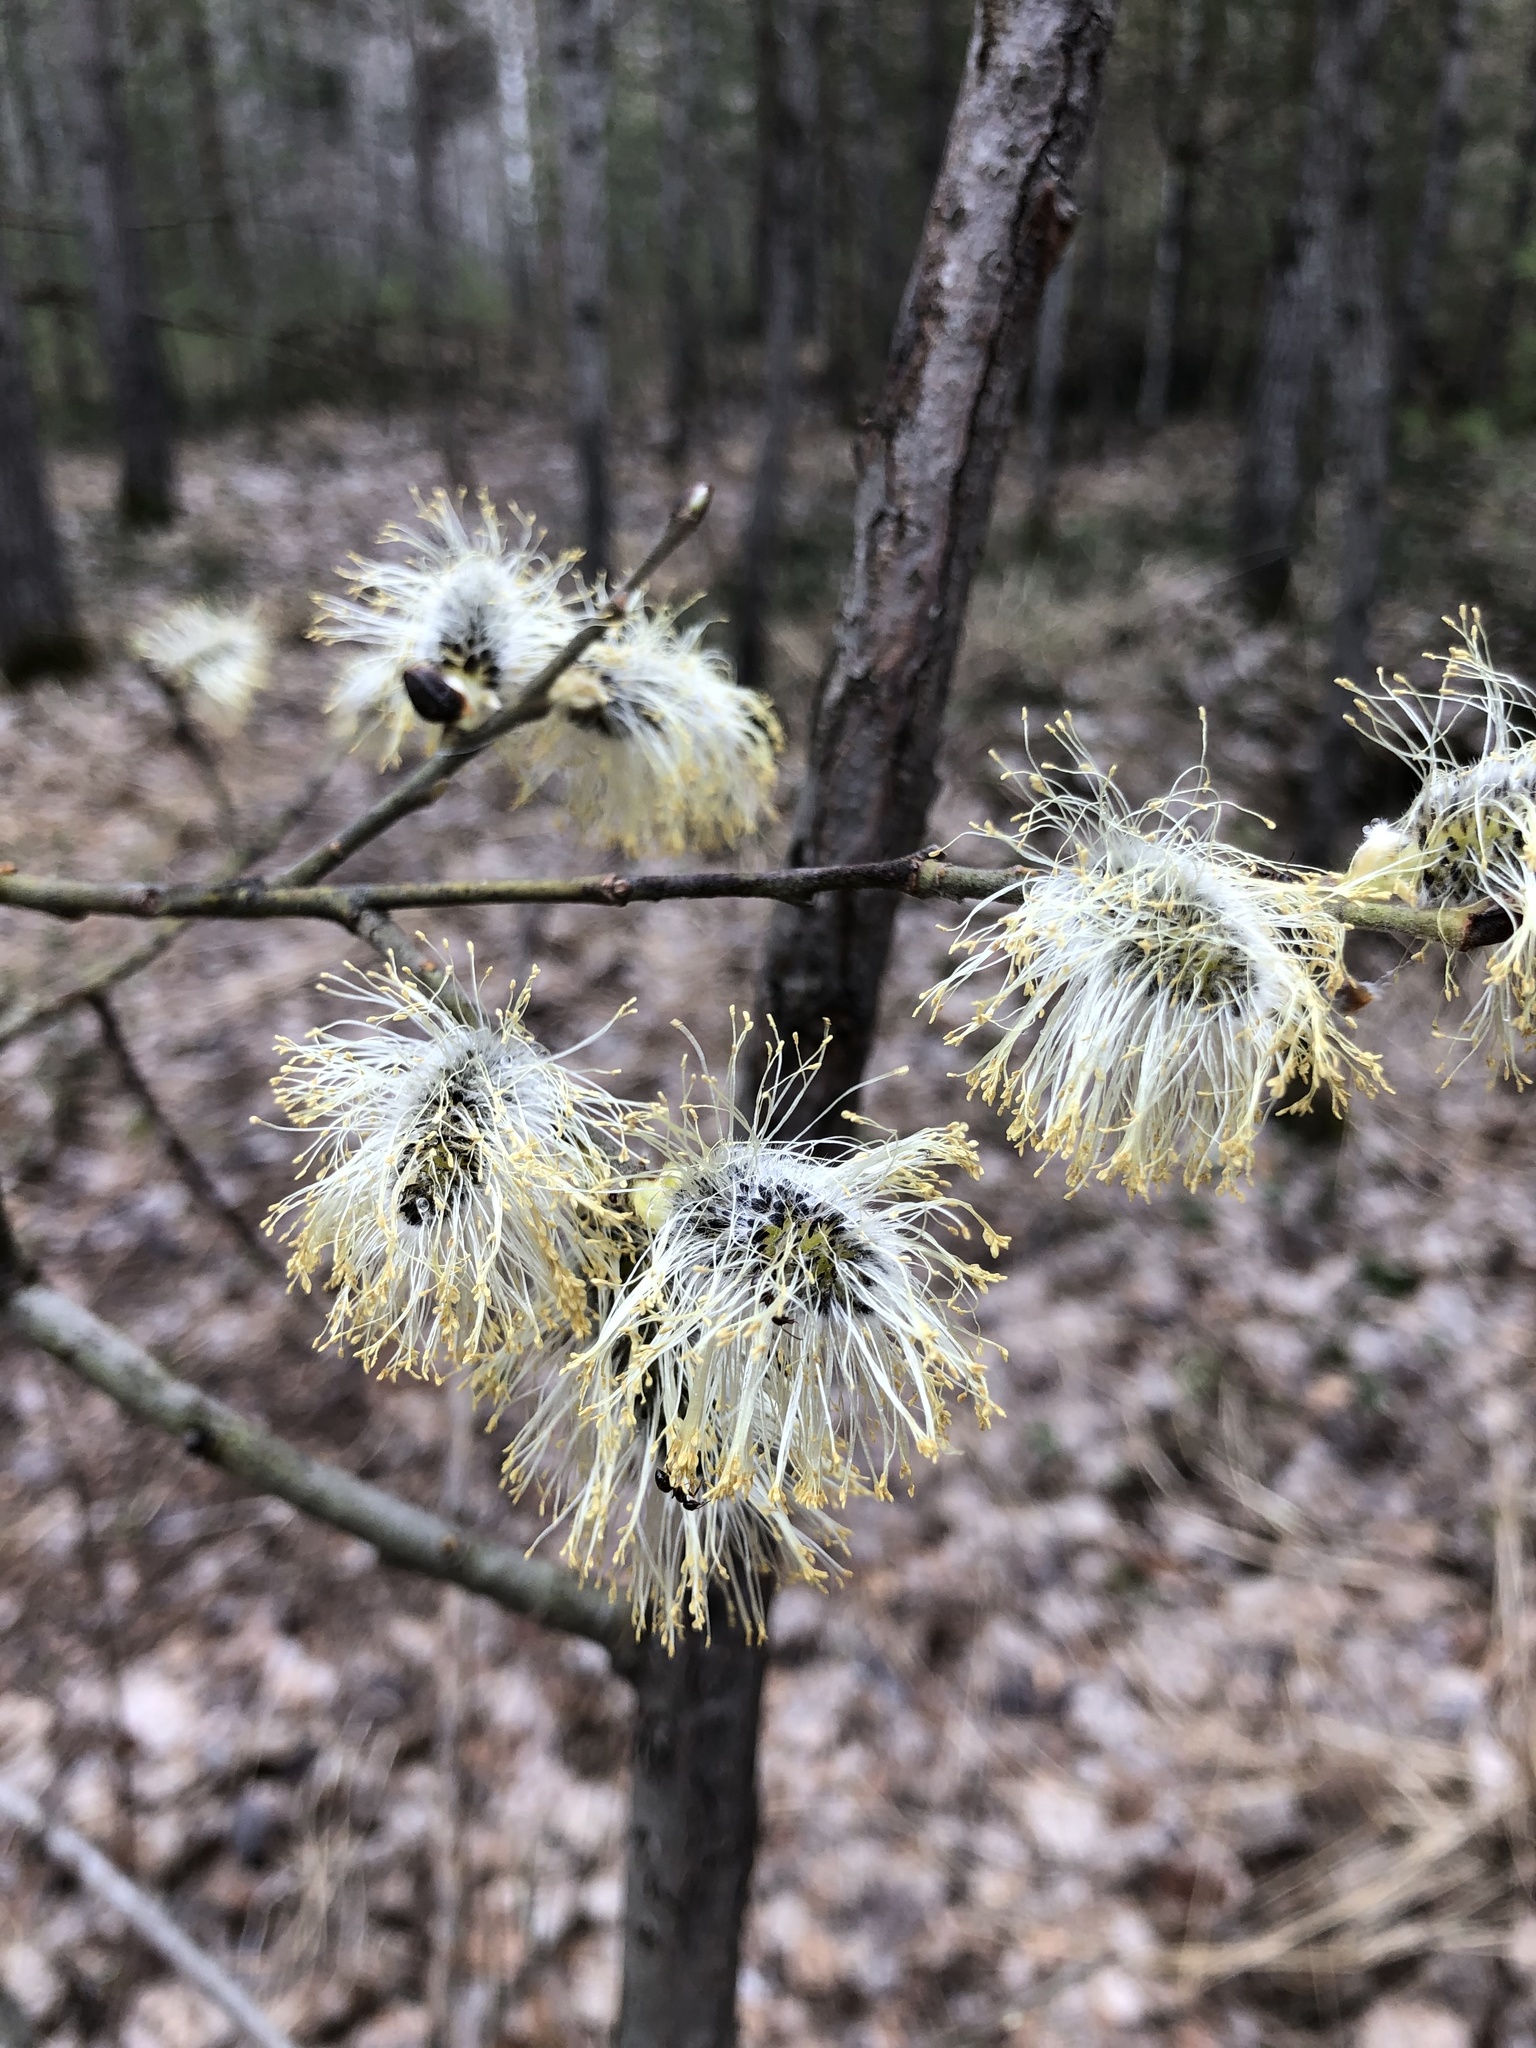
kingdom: Plantae
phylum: Tracheophyta
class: Magnoliopsida
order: Malpighiales
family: Salicaceae
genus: Salix
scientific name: Salix caprea
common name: Goat willow
